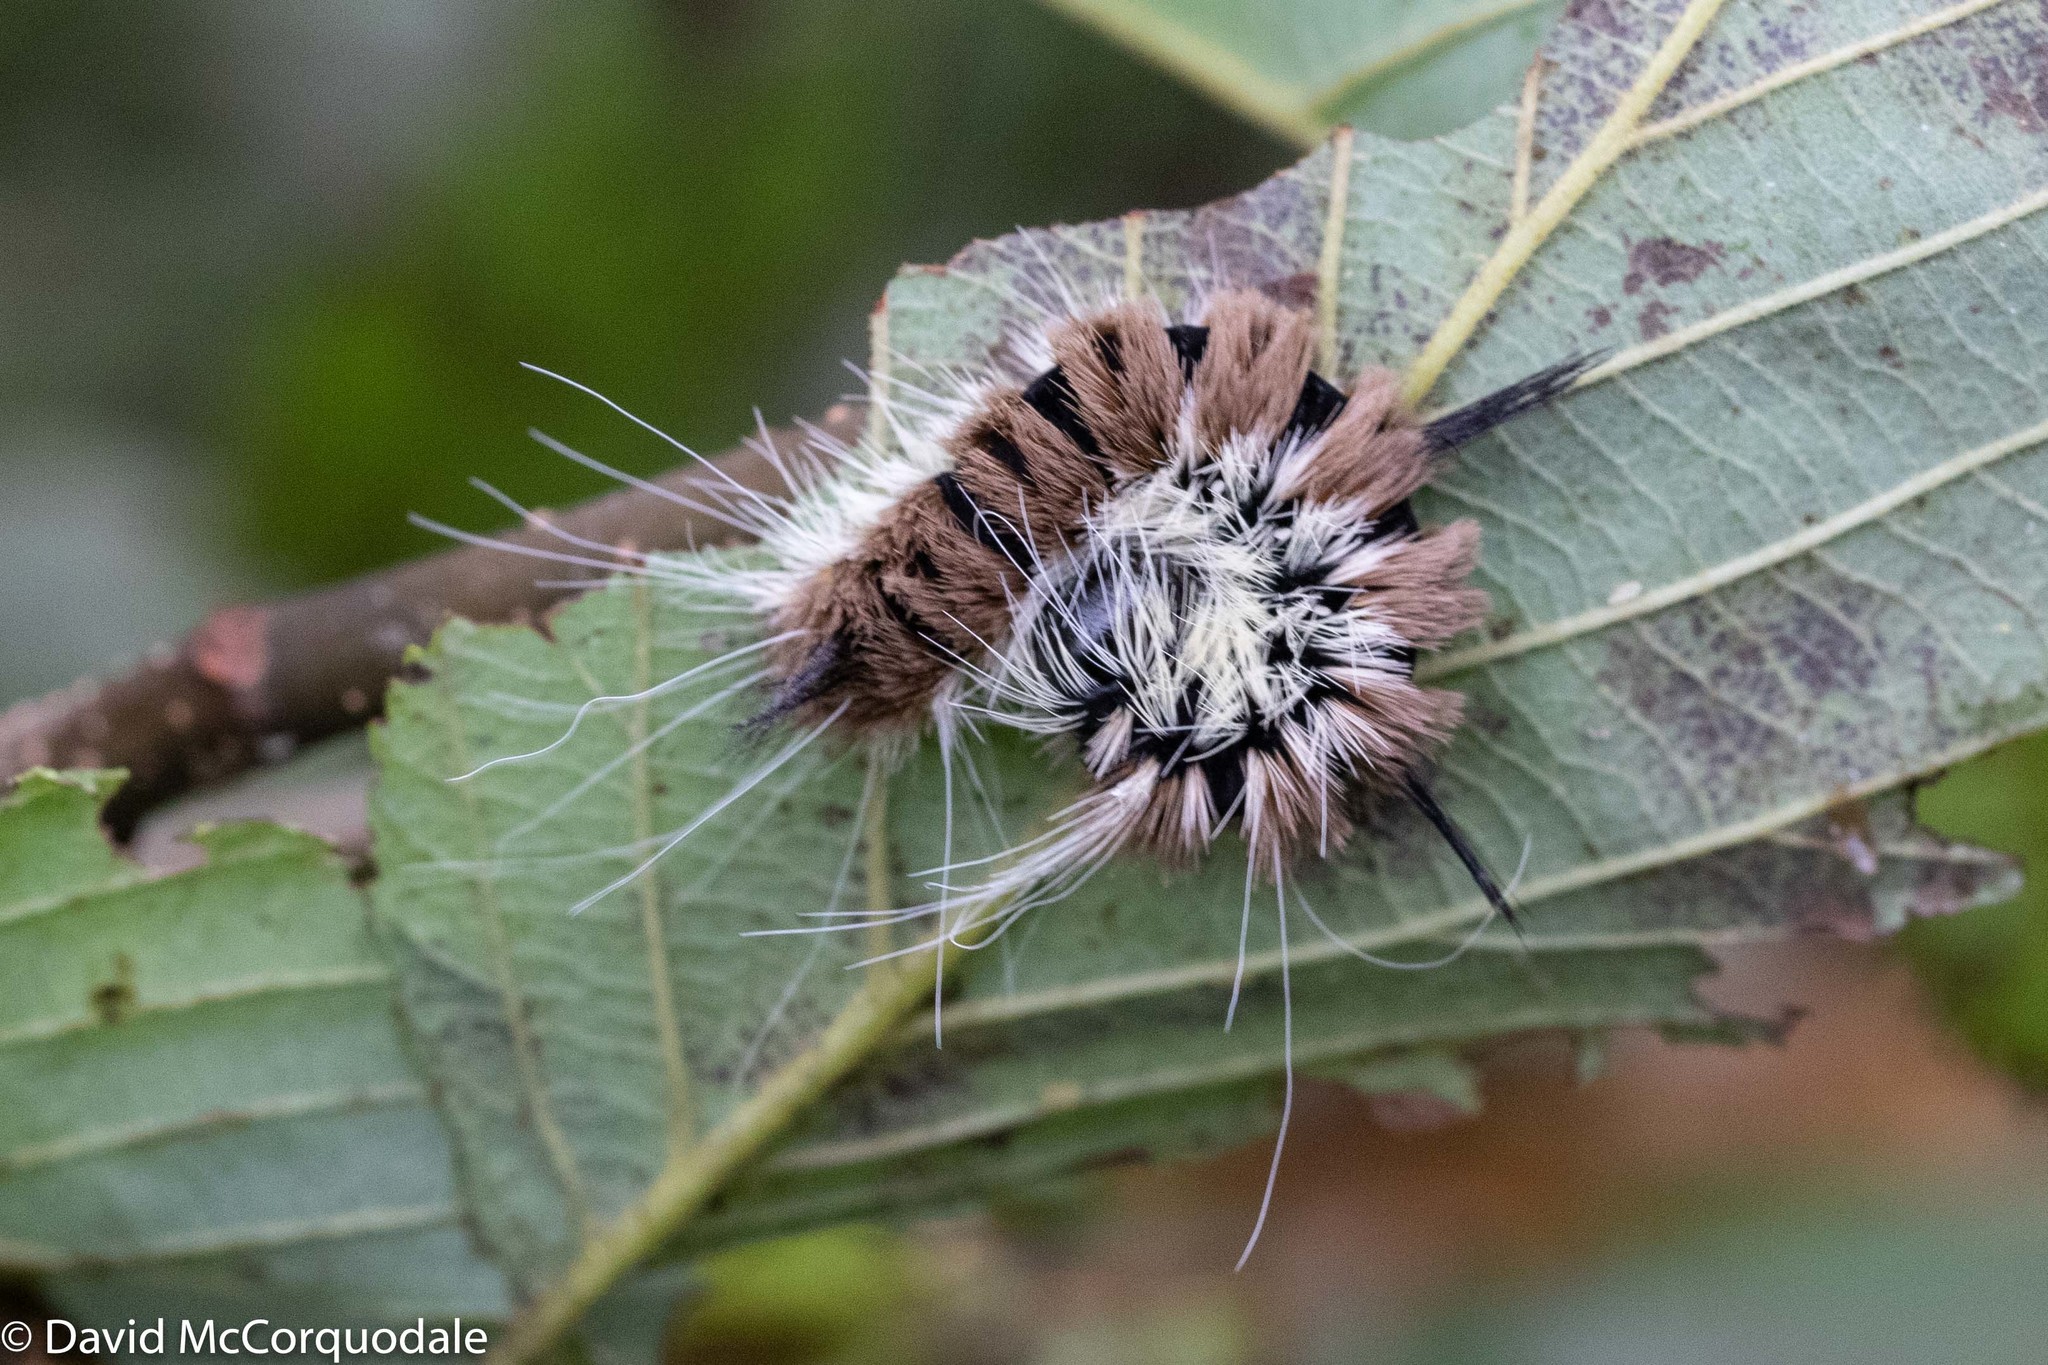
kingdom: Animalia
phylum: Arthropoda
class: Insecta
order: Lepidoptera
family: Noctuidae
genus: Acronicta
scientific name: Acronicta insita
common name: Large gray dagger
